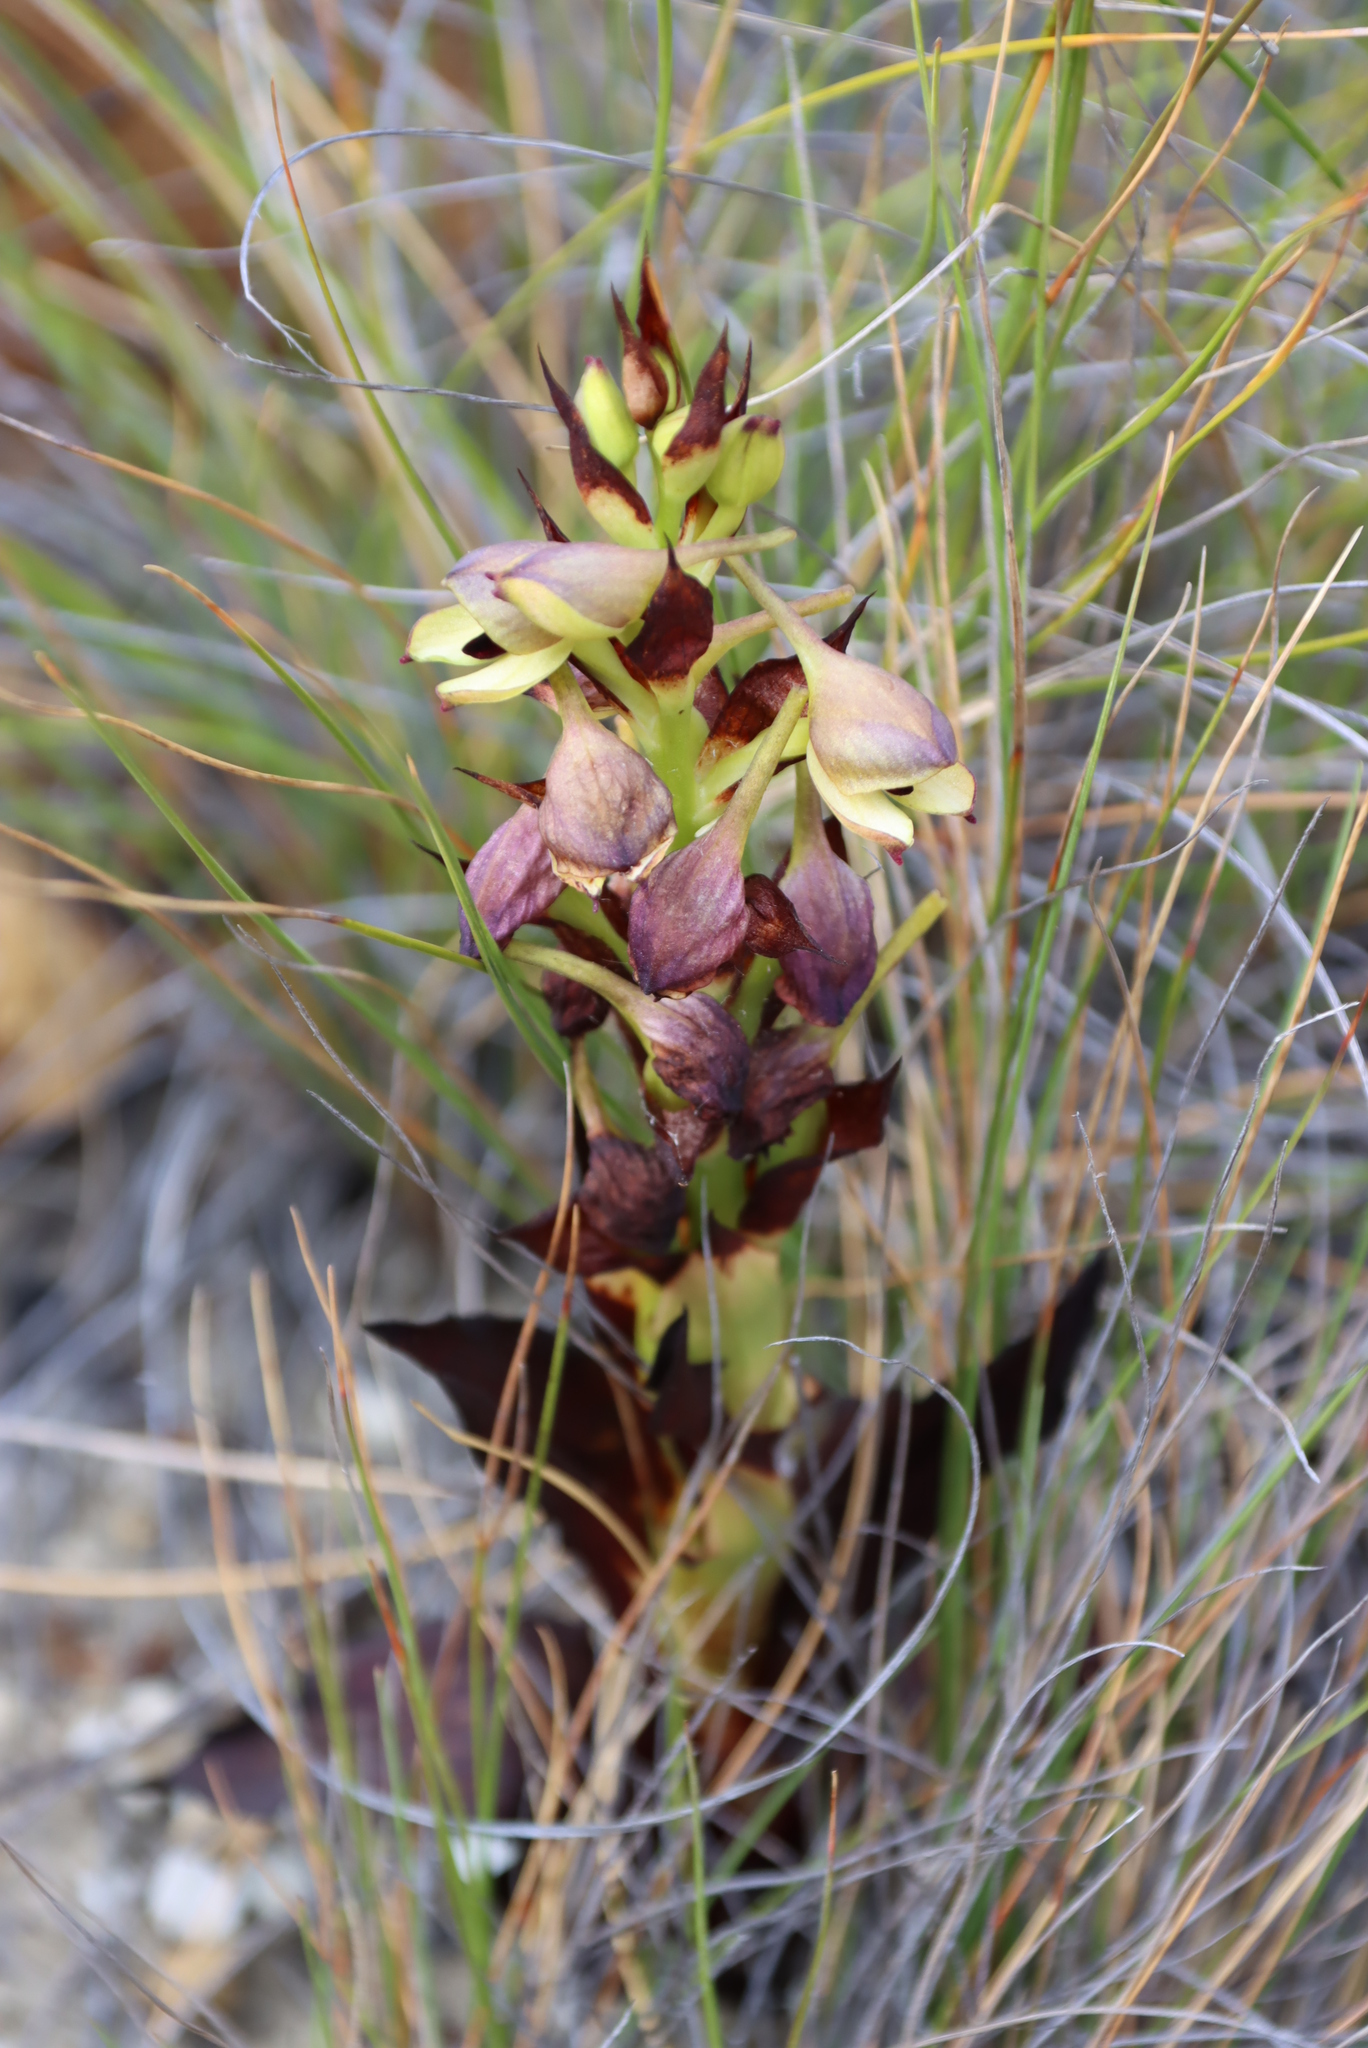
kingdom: Plantae
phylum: Tracheophyta
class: Liliopsida
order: Asparagales
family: Orchidaceae
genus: Disa
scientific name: Disa cornuta
